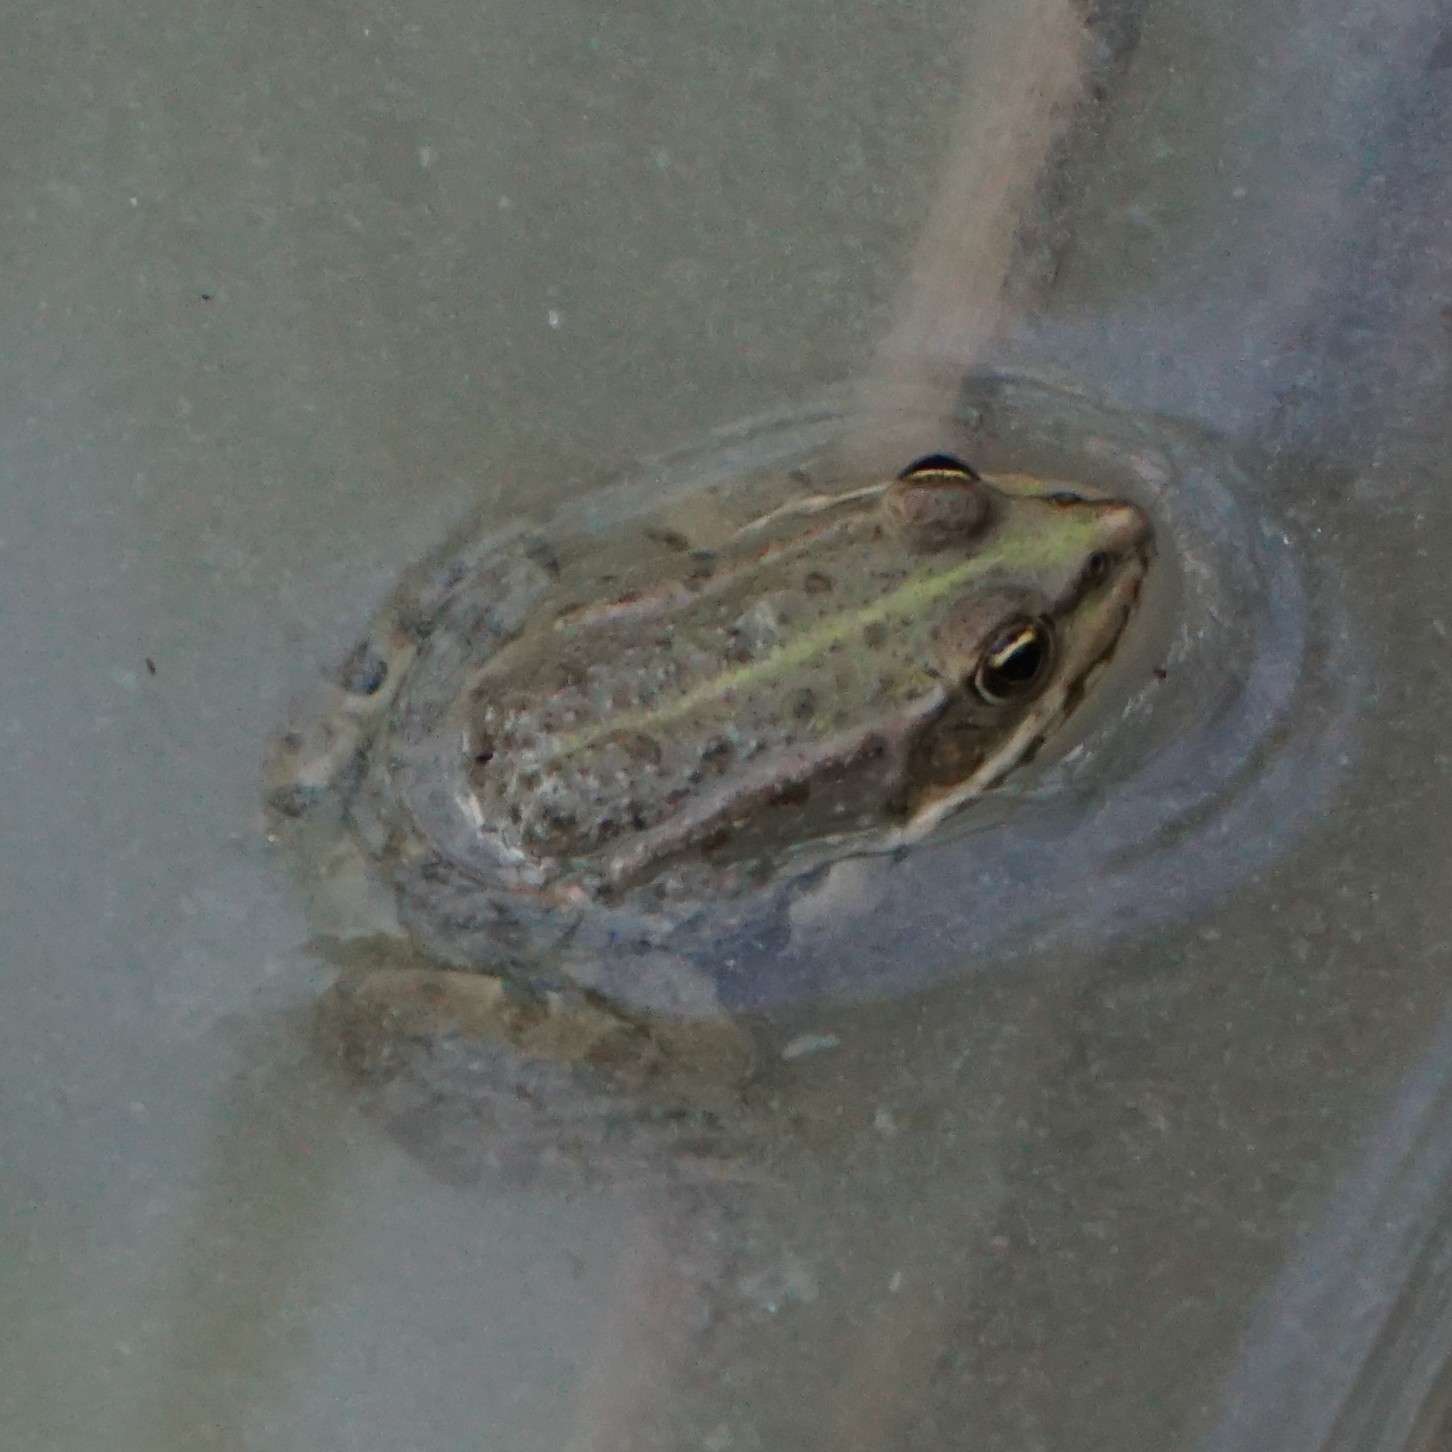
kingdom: Animalia
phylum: Chordata
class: Amphibia
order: Anura
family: Ranidae
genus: Pelophylax
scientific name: Pelophylax
